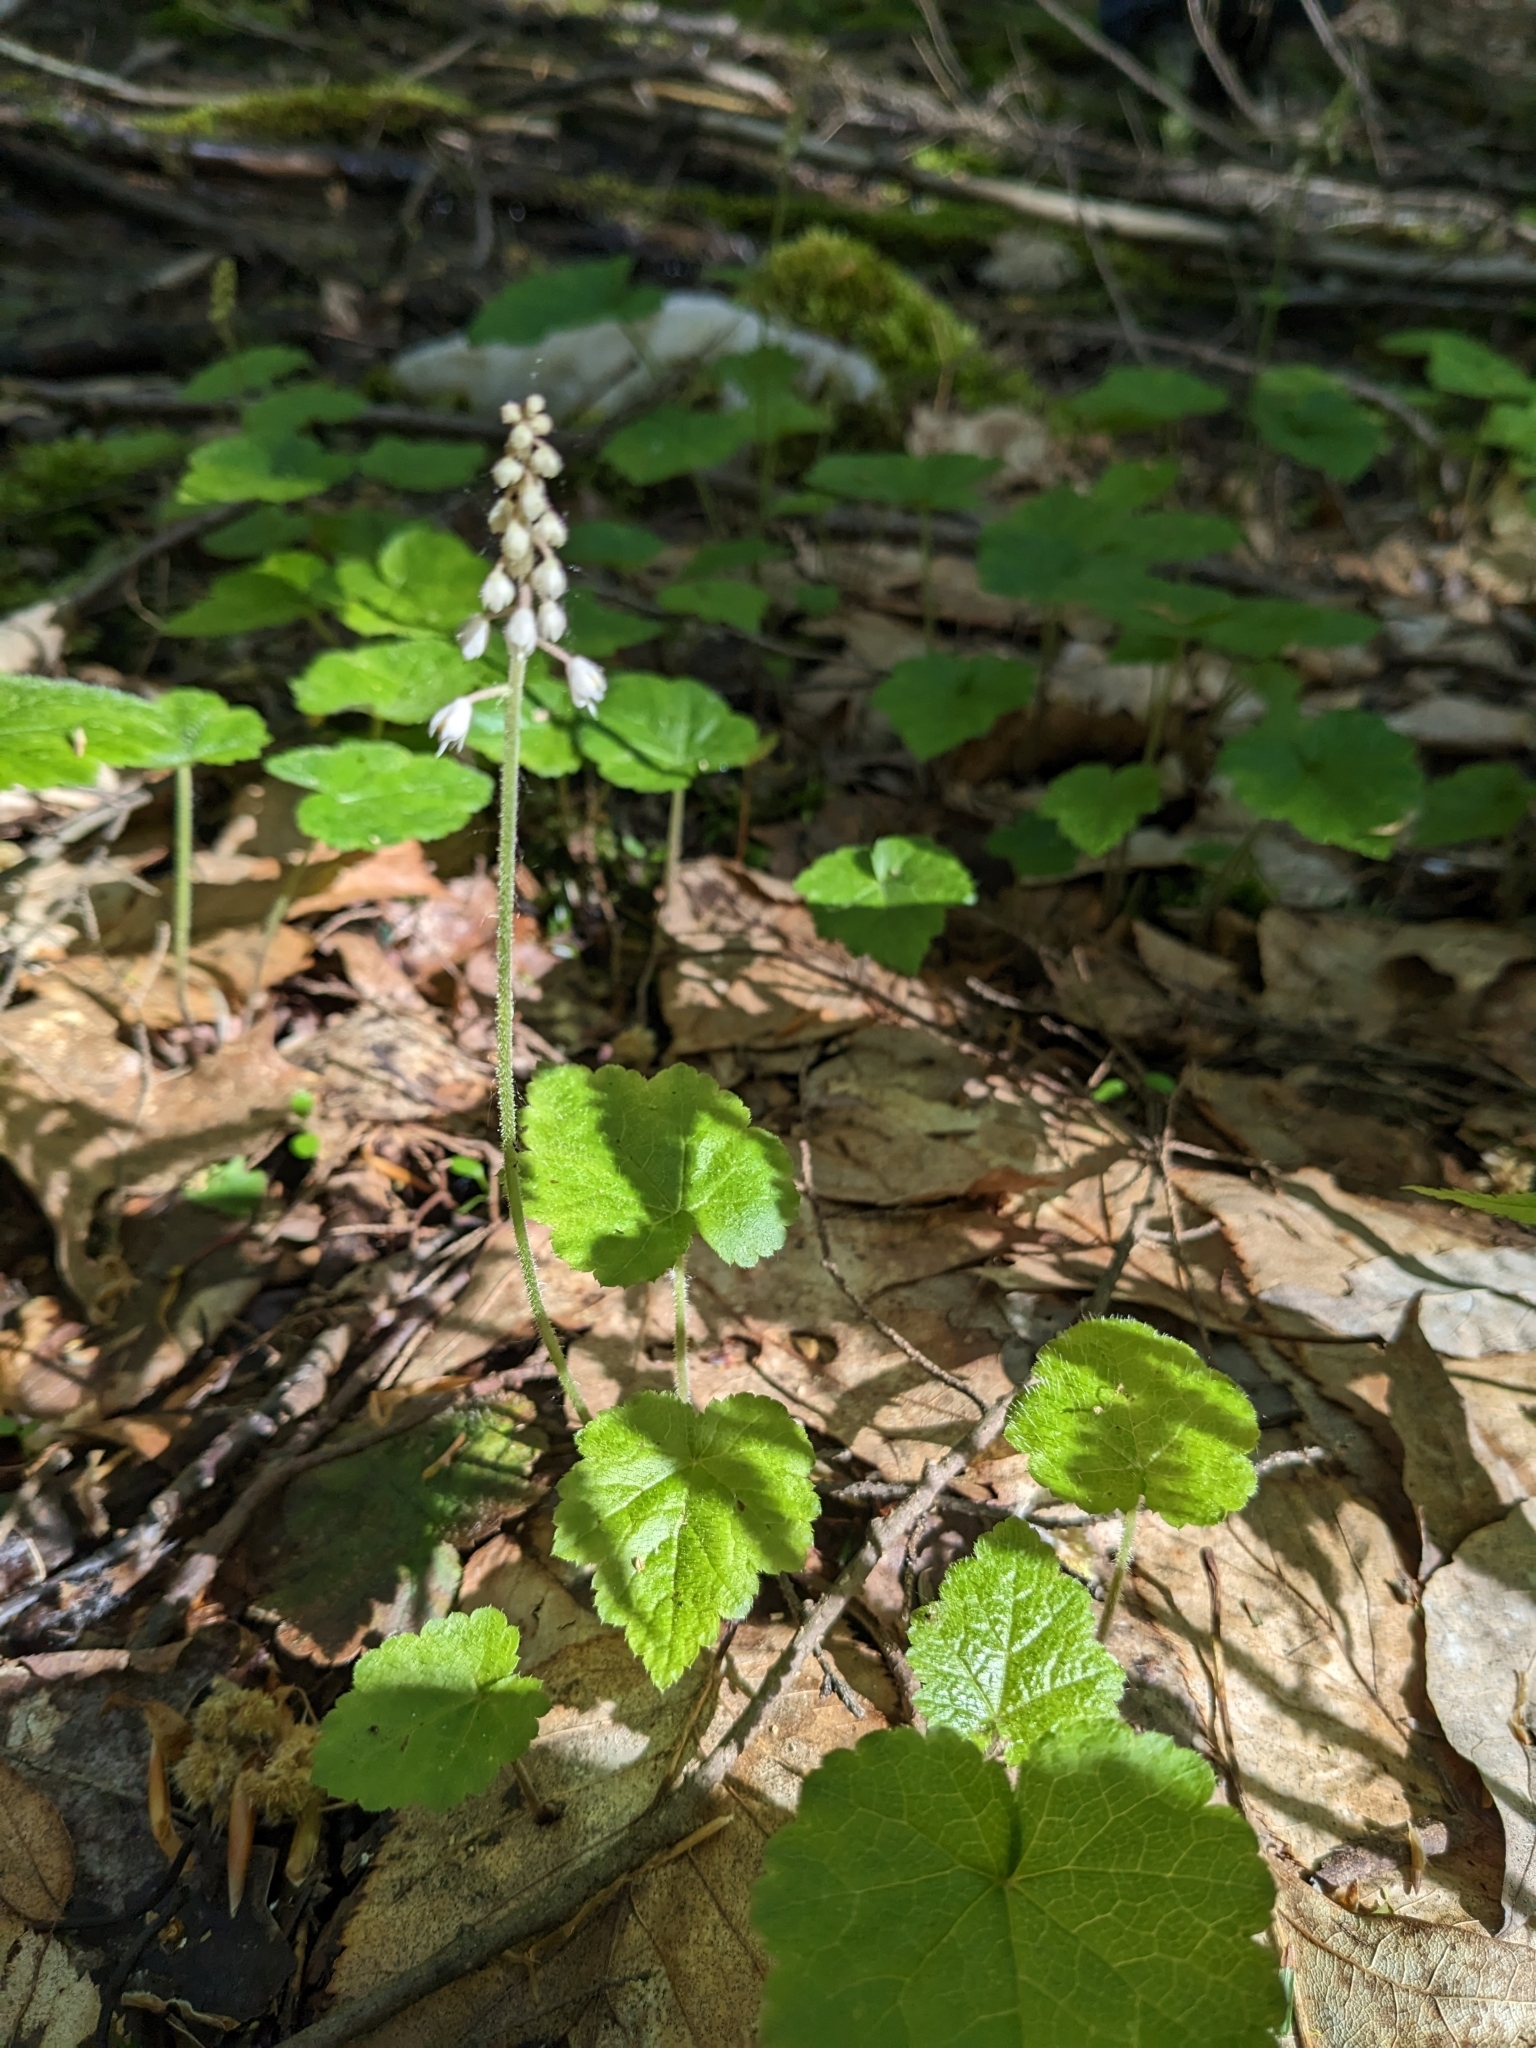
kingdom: Plantae
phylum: Tracheophyta
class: Magnoliopsida
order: Saxifragales
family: Saxifragaceae
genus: Tiarella
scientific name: Tiarella stolonifera
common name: Stoloniferous foamflower
